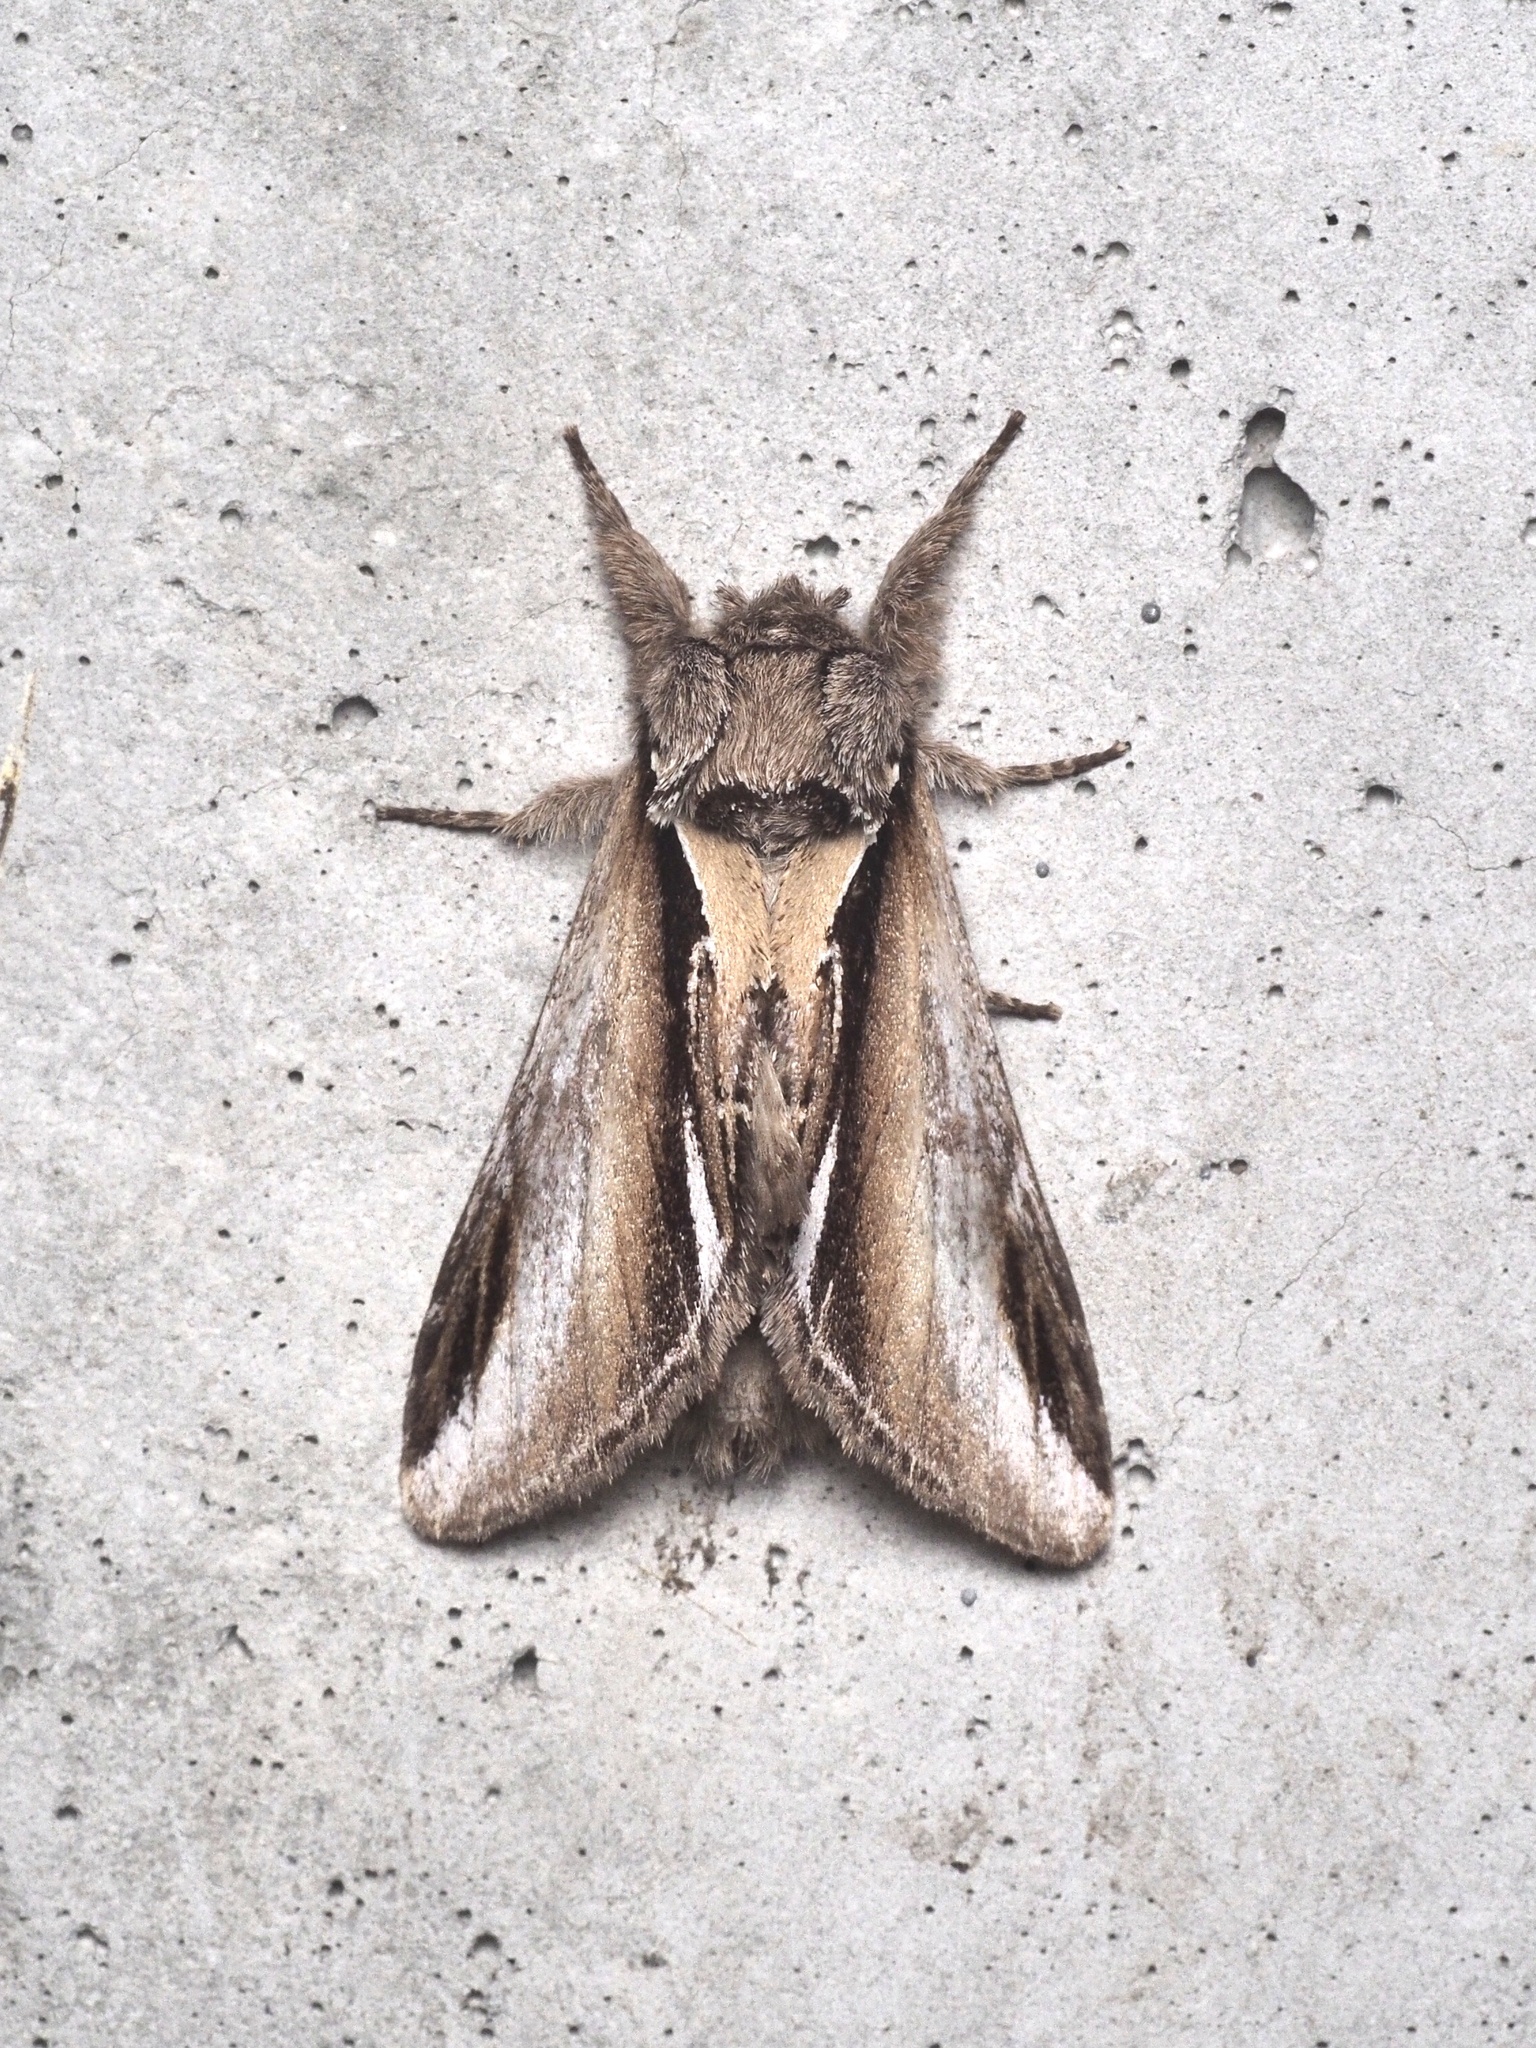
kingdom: Animalia
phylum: Arthropoda
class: Insecta
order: Lepidoptera
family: Notodontidae
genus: Pheosia
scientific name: Pheosia gnoma
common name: Lesser swallow prominent
